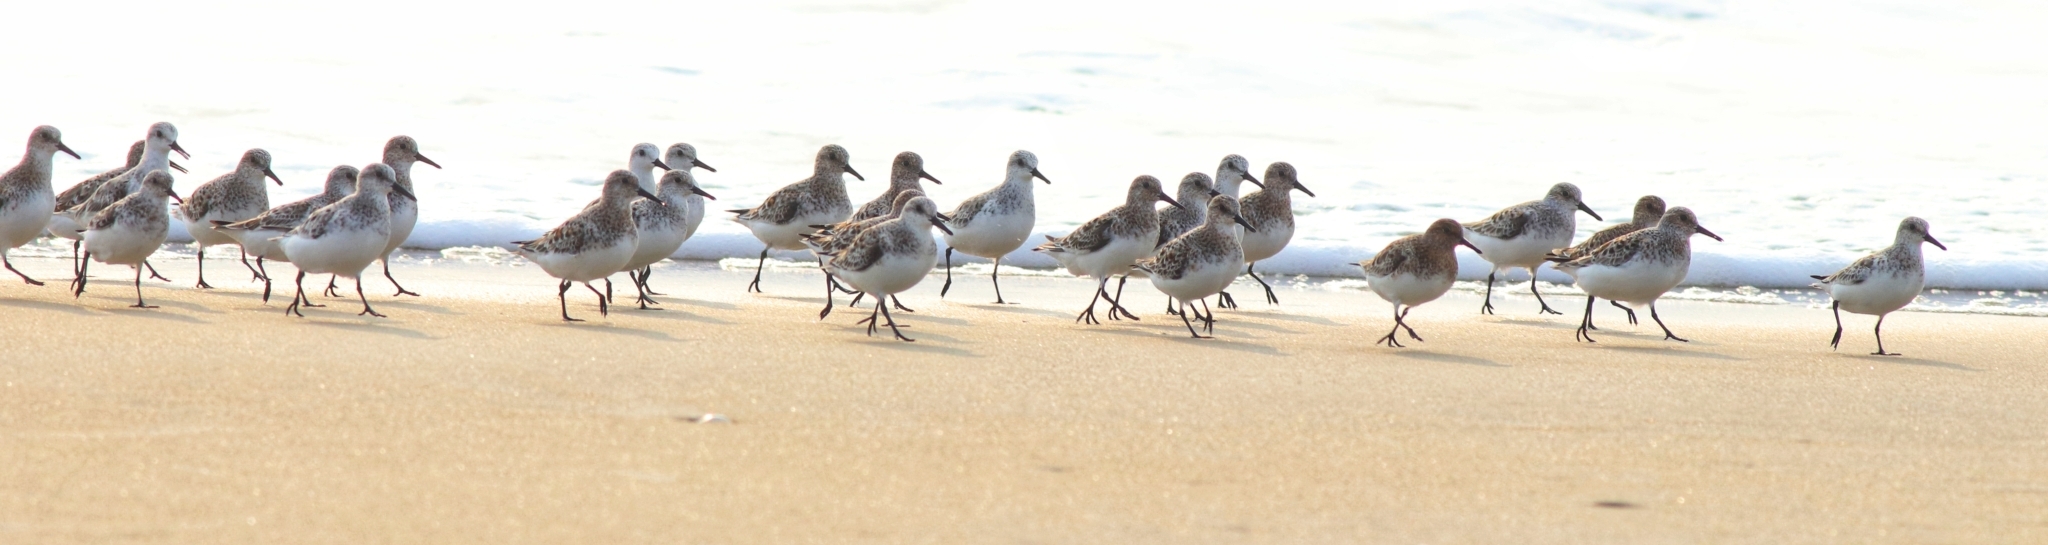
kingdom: Animalia
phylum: Chordata
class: Aves
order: Charadriiformes
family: Scolopacidae
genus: Calidris
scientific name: Calidris alba
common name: Sanderling
